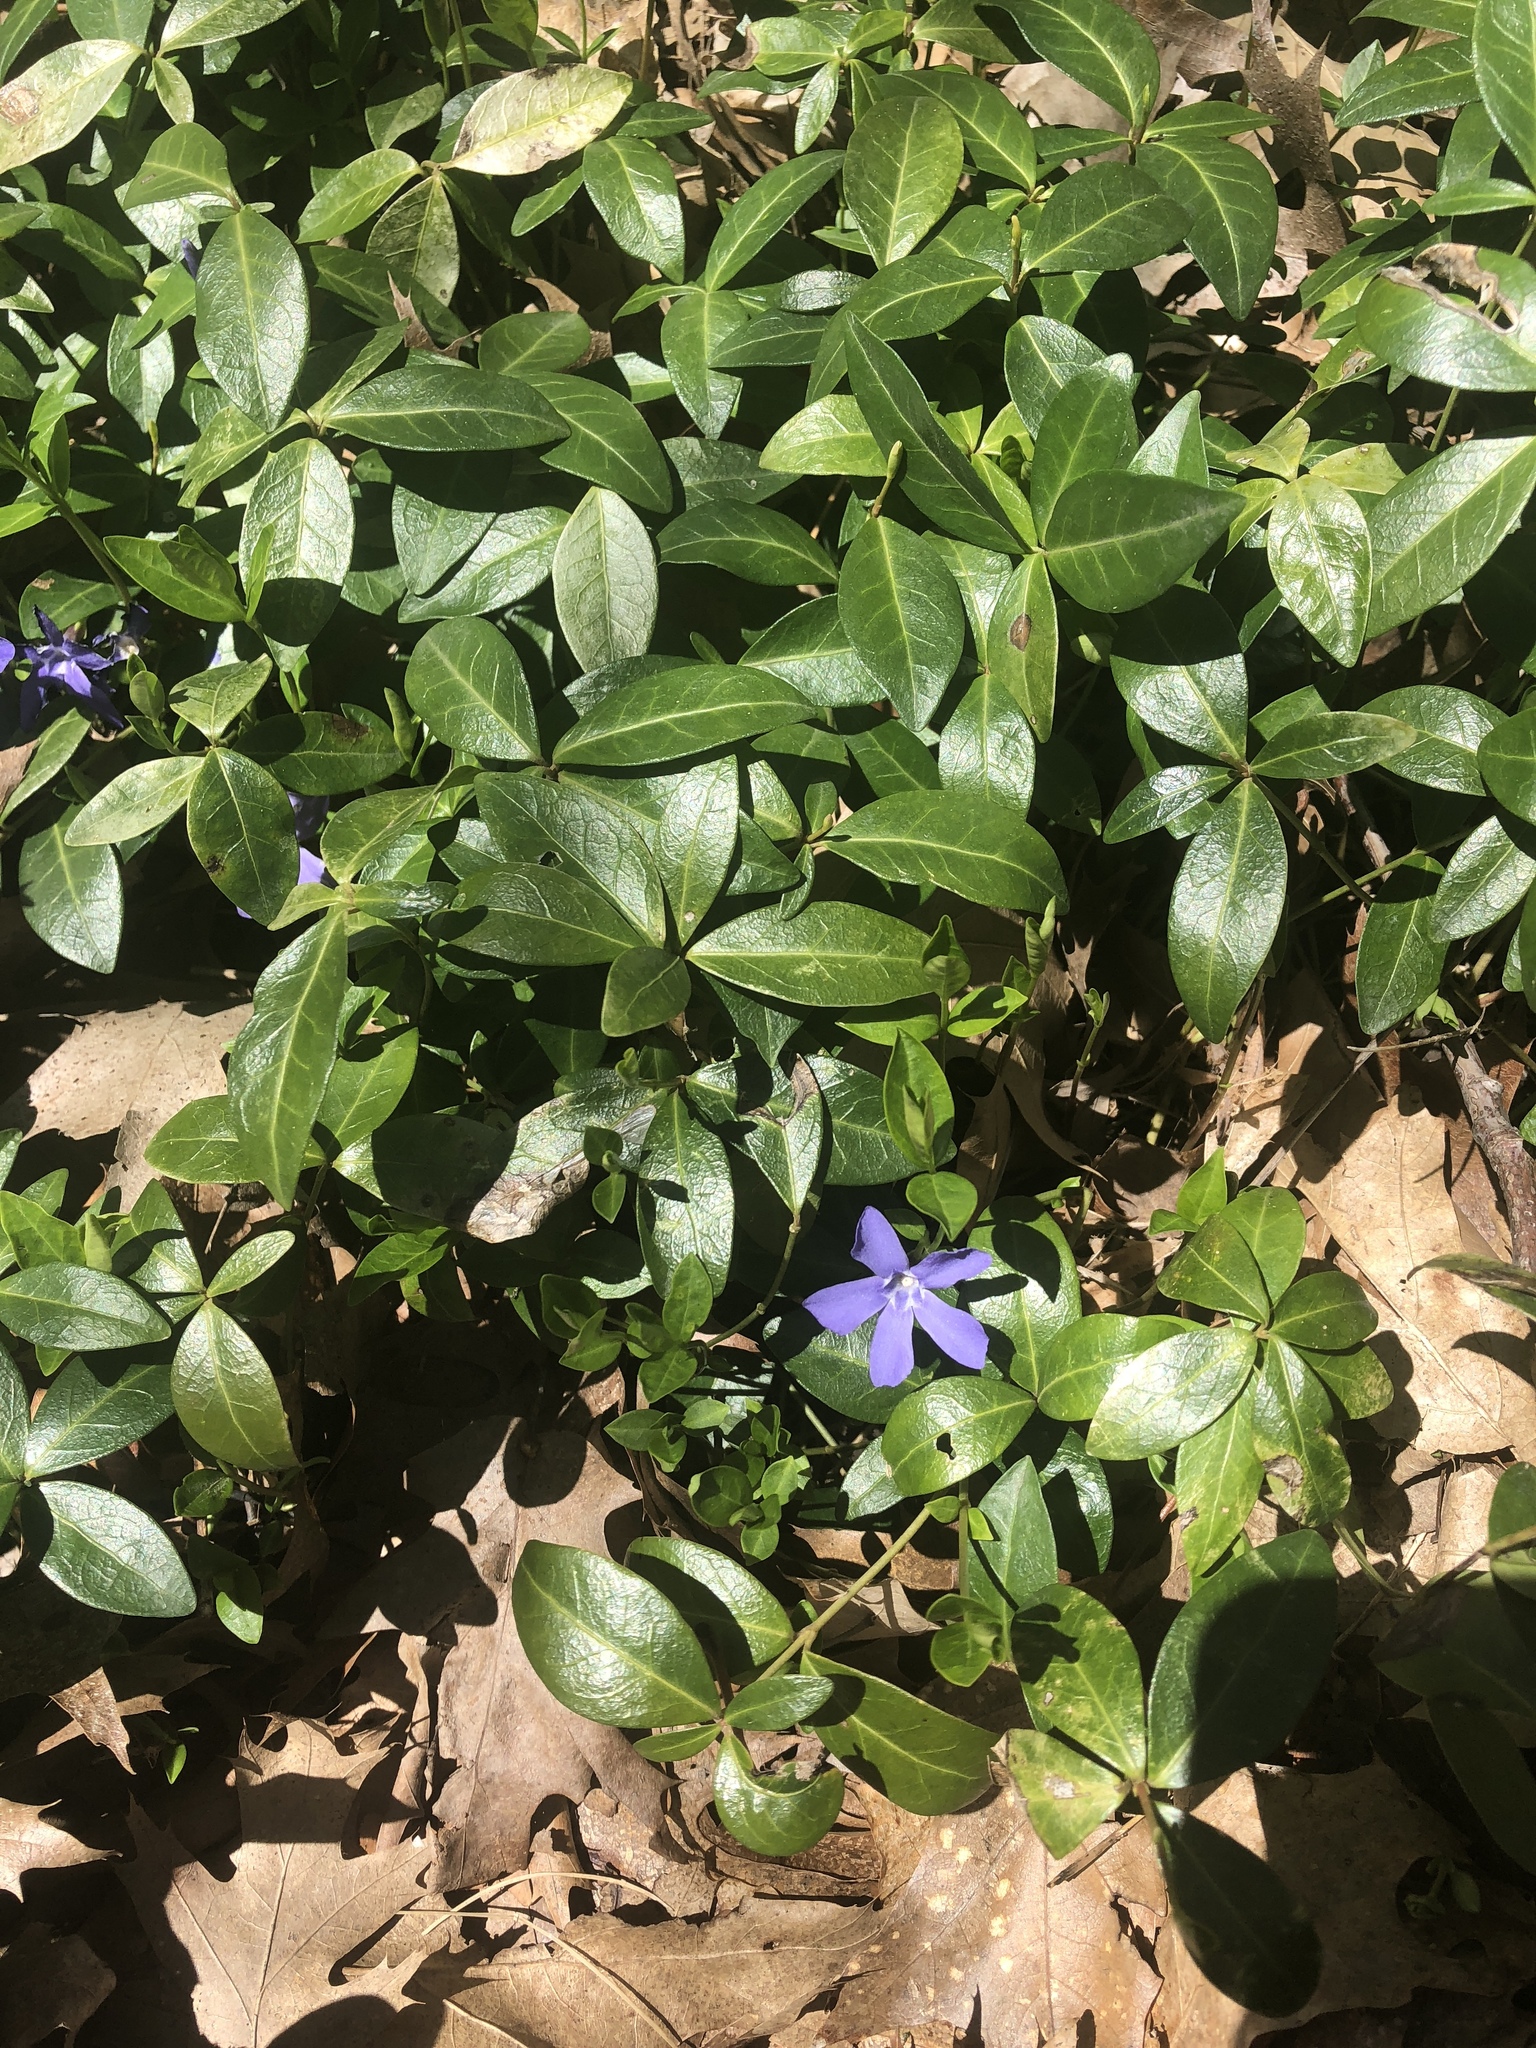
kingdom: Plantae
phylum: Tracheophyta
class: Magnoliopsida
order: Gentianales
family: Apocynaceae
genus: Vinca
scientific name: Vinca minor
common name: Lesser periwinkle
